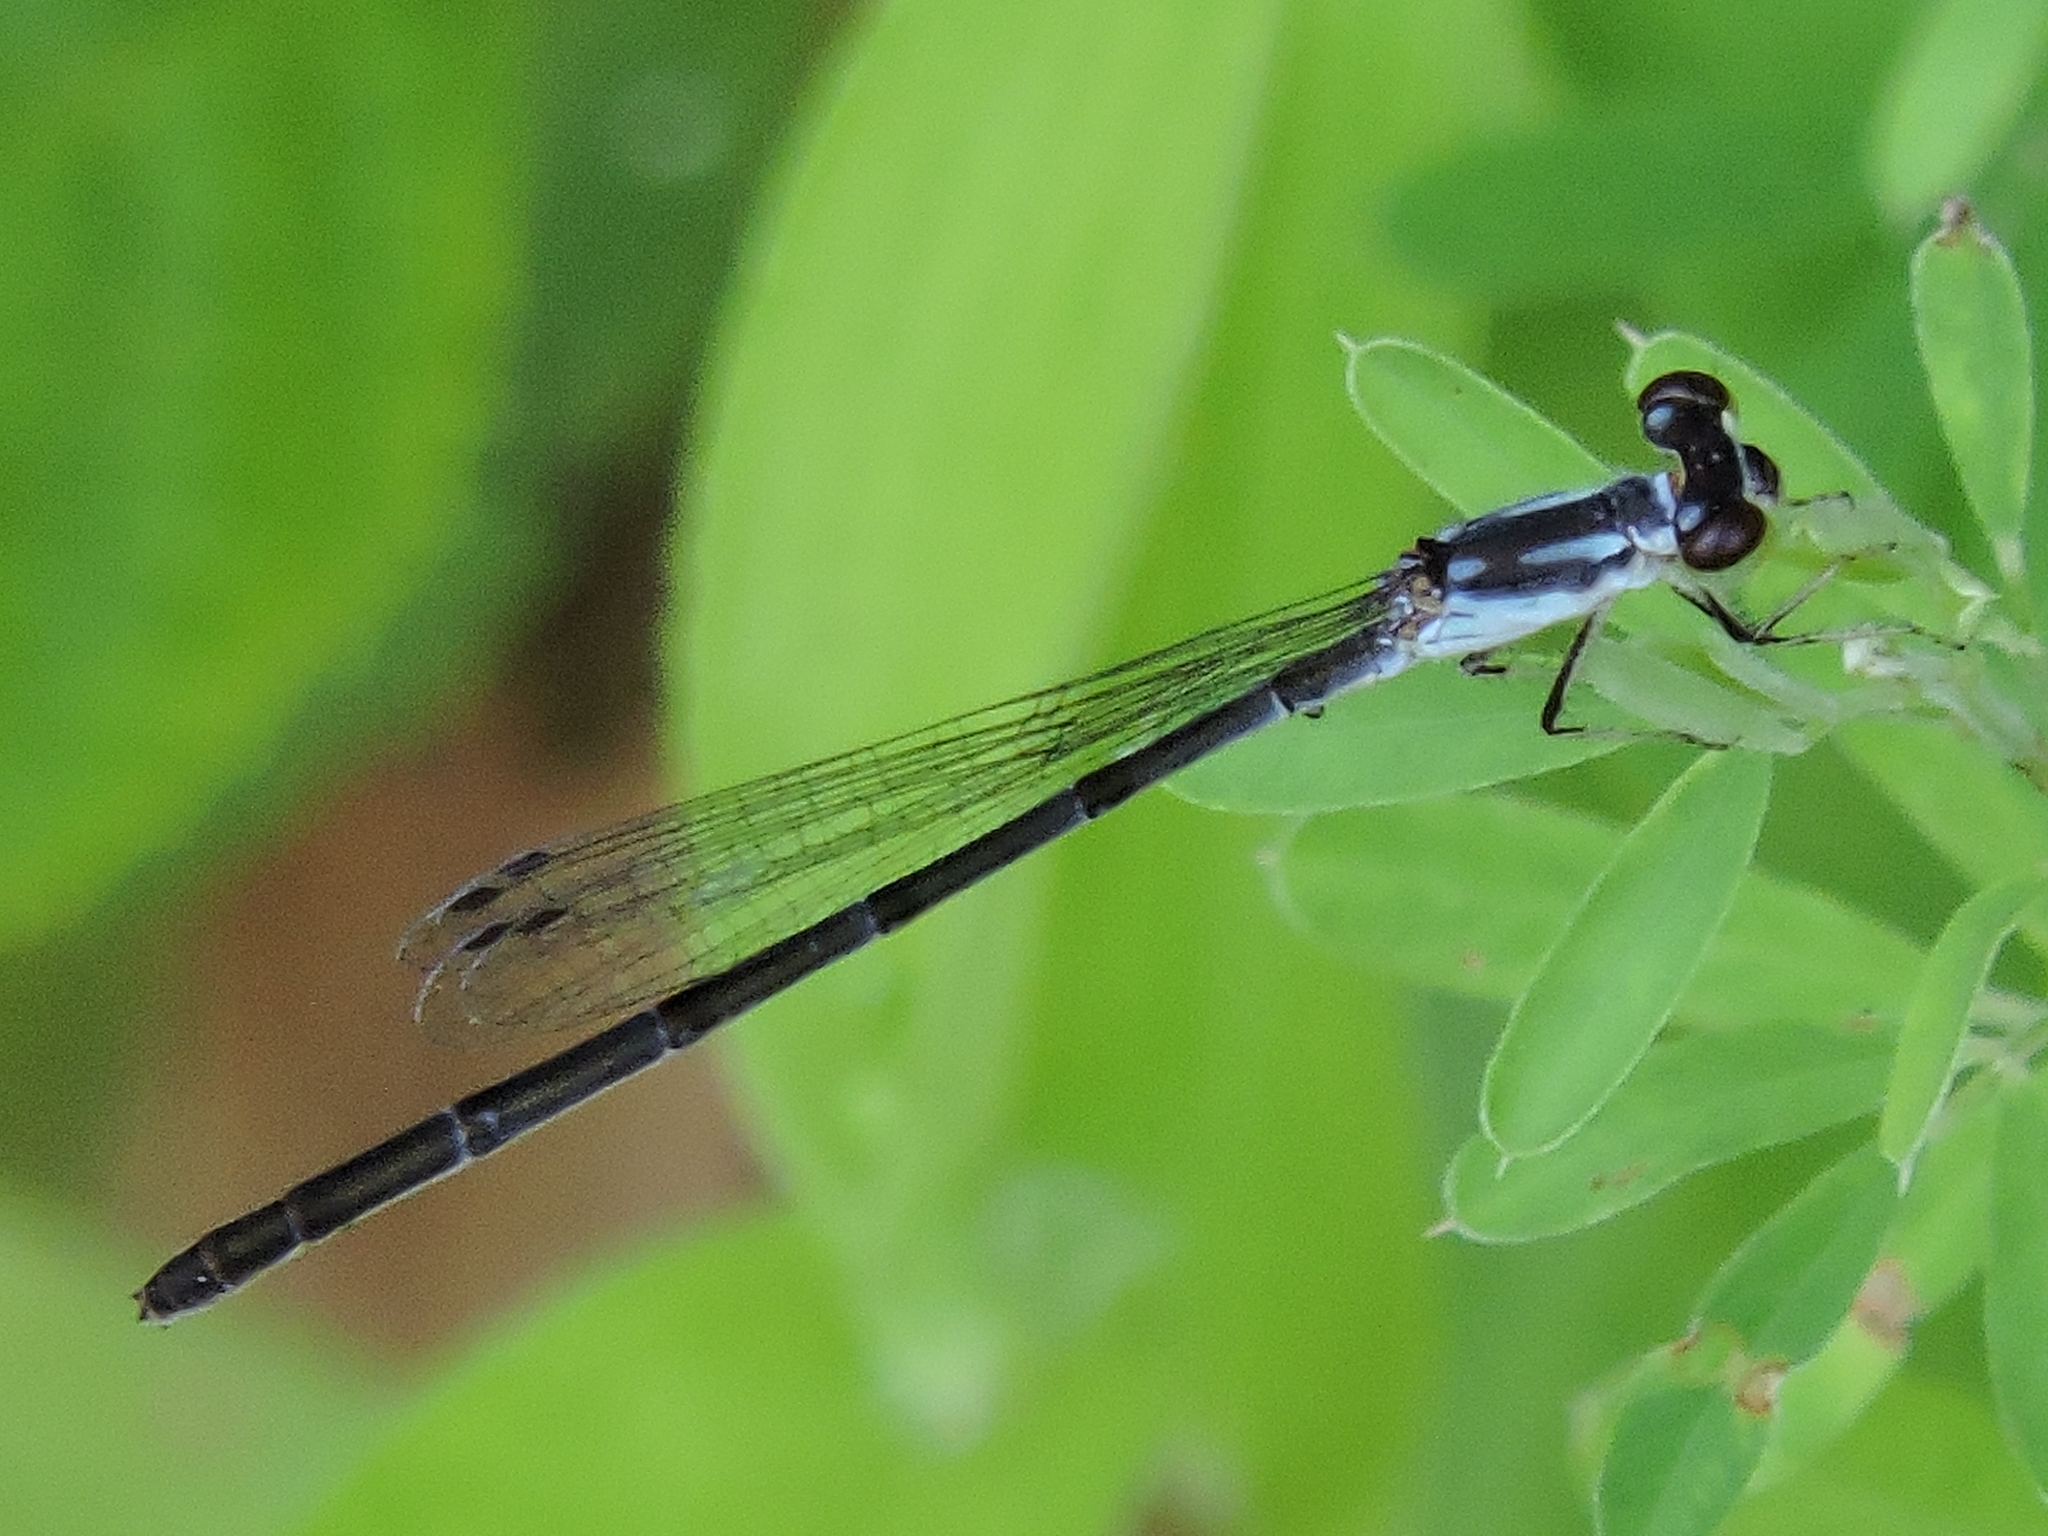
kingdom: Animalia
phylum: Arthropoda
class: Insecta
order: Odonata
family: Coenagrionidae
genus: Ischnura
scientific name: Ischnura posita
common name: Fragile forktail
